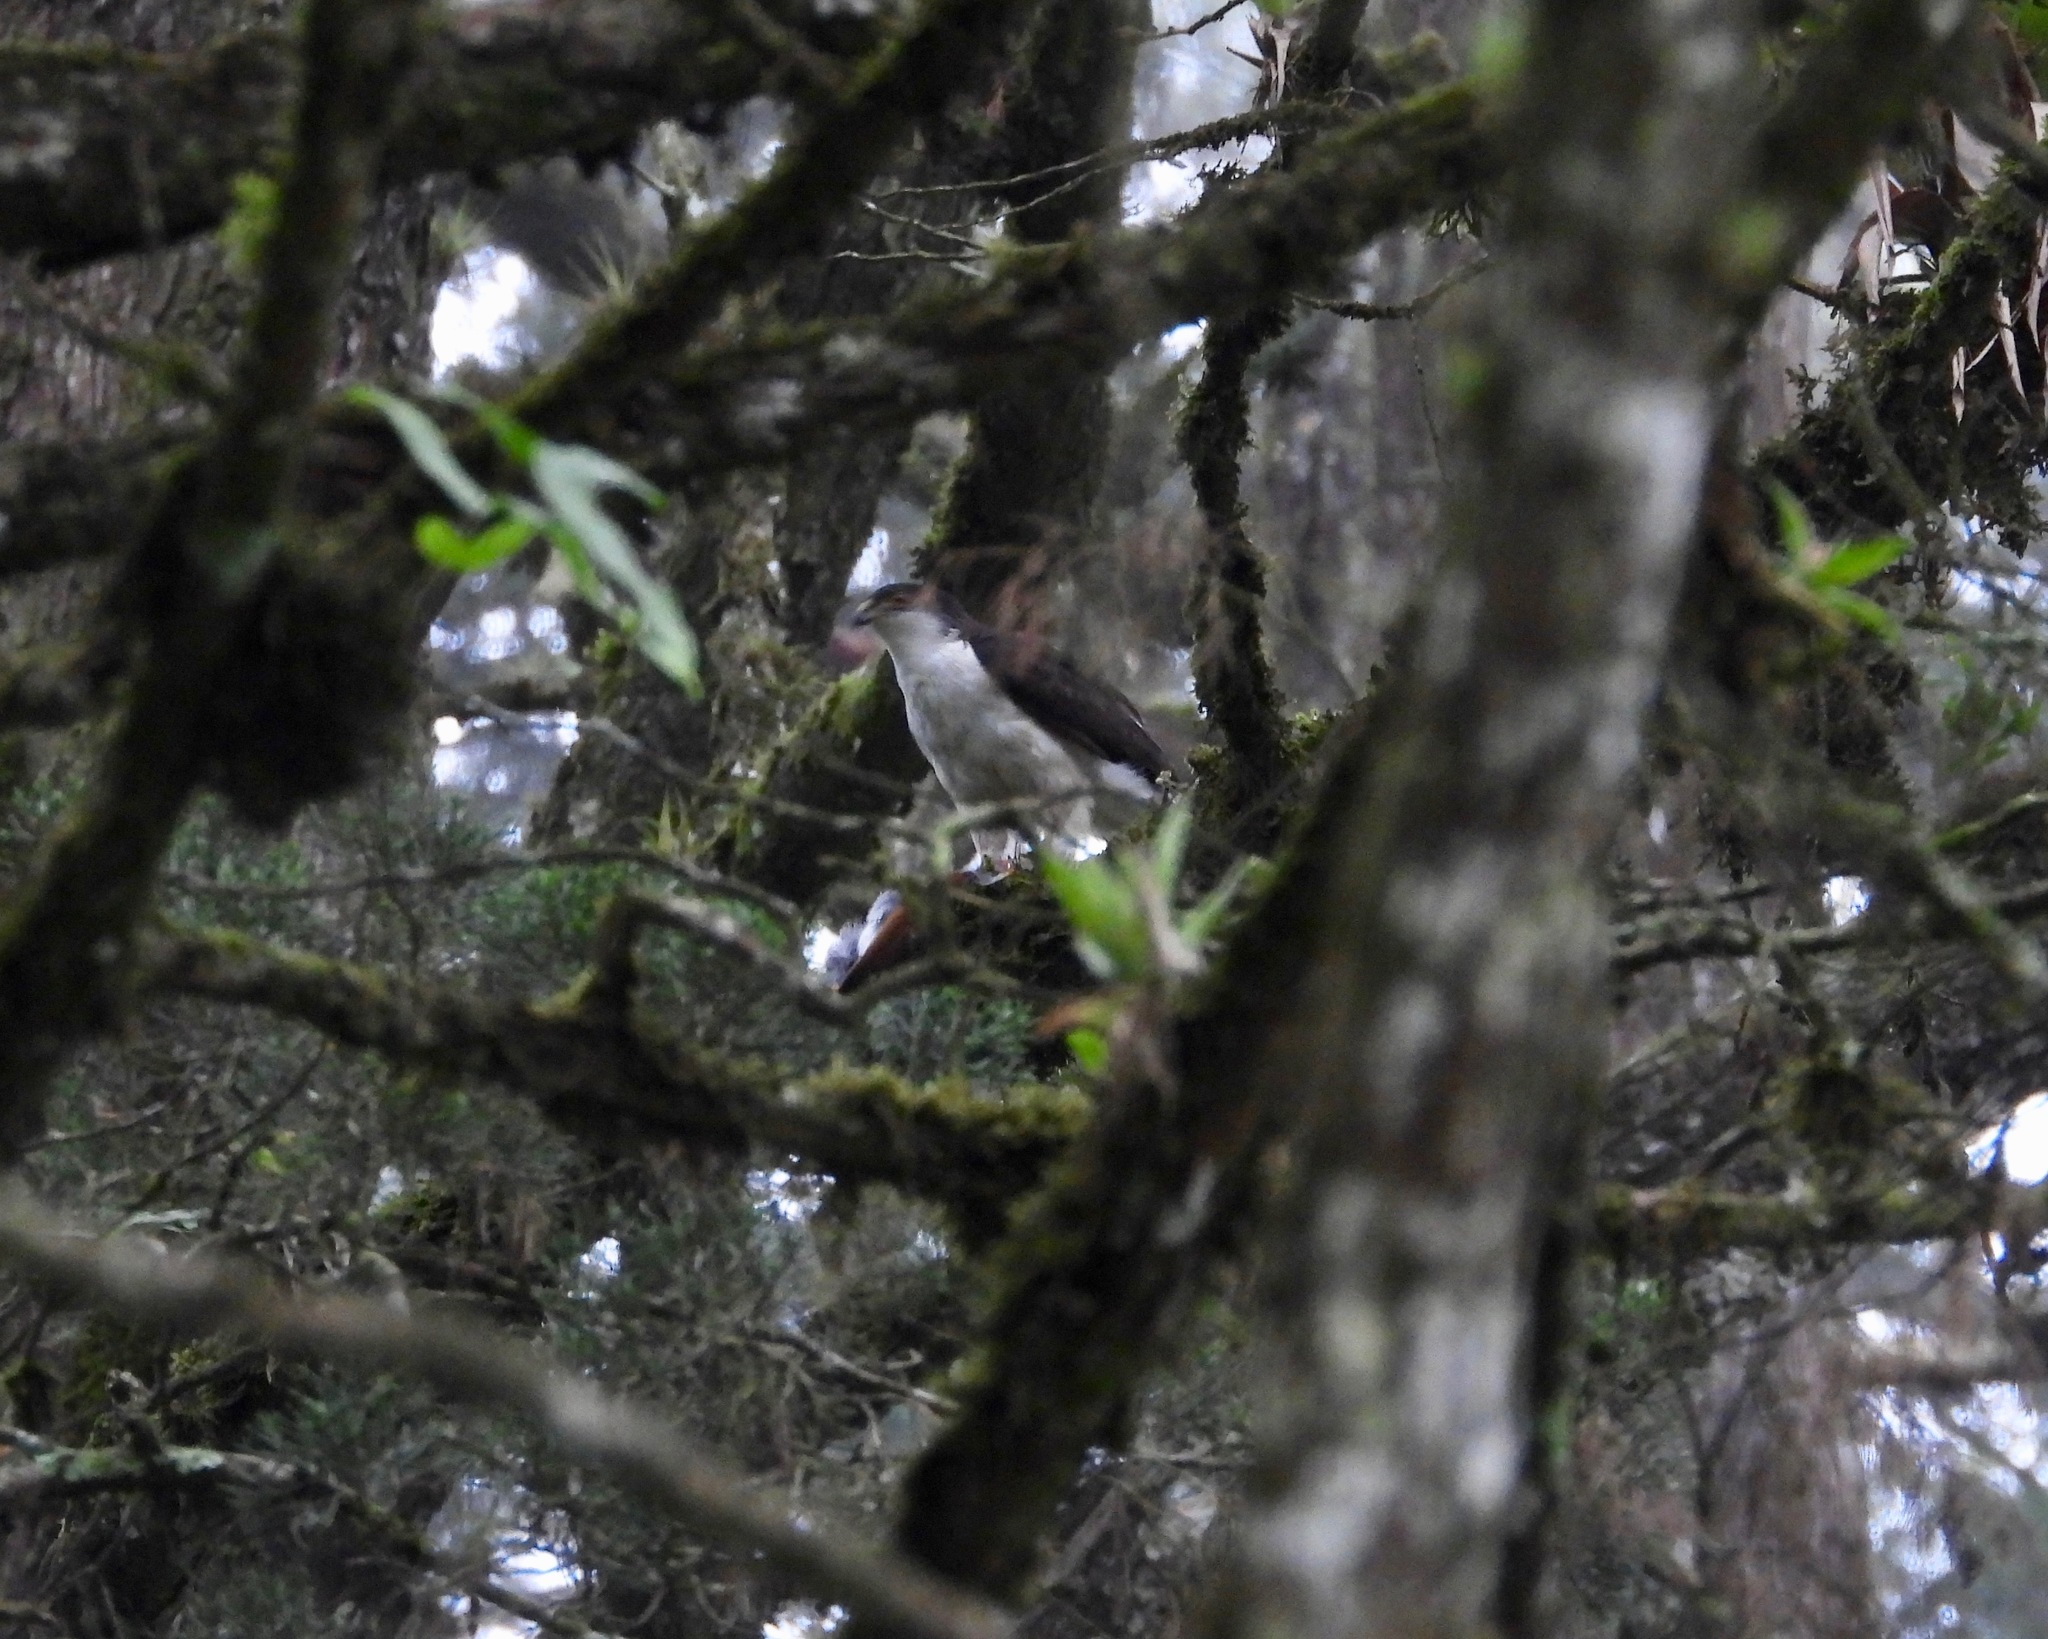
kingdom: Animalia
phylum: Chordata
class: Aves
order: Accipitriformes
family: Accipitridae
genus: Accipiter
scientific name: Accipiter striatus
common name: Sharp-shinned hawk
